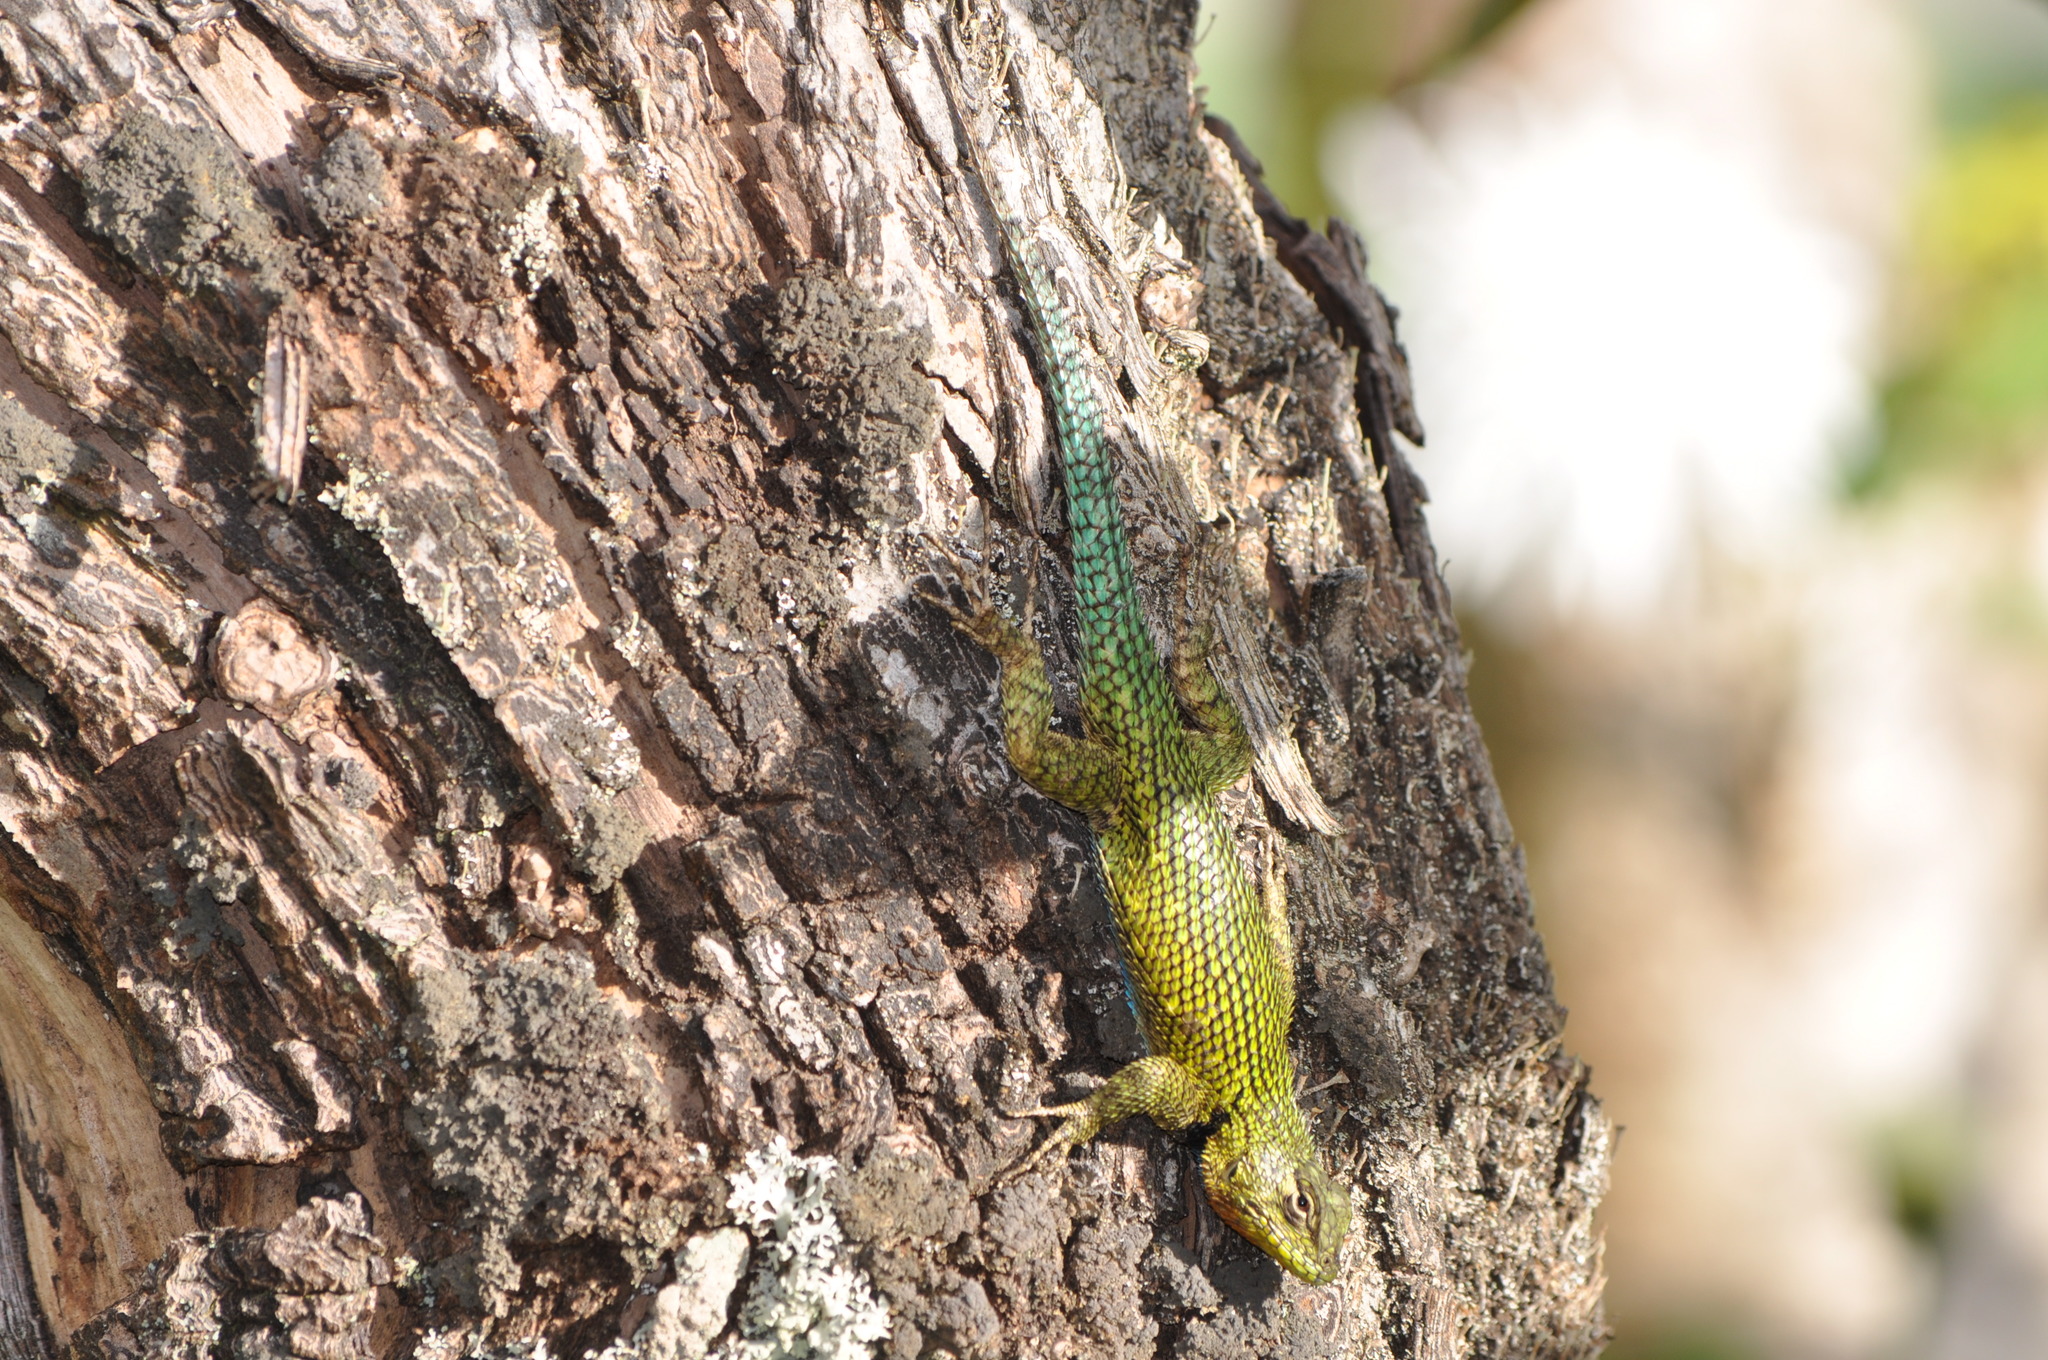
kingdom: Animalia
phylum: Chordata
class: Squamata
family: Phrynosomatidae
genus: Sceloporus
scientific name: Sceloporus malachiticus
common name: Green spiny lizard
